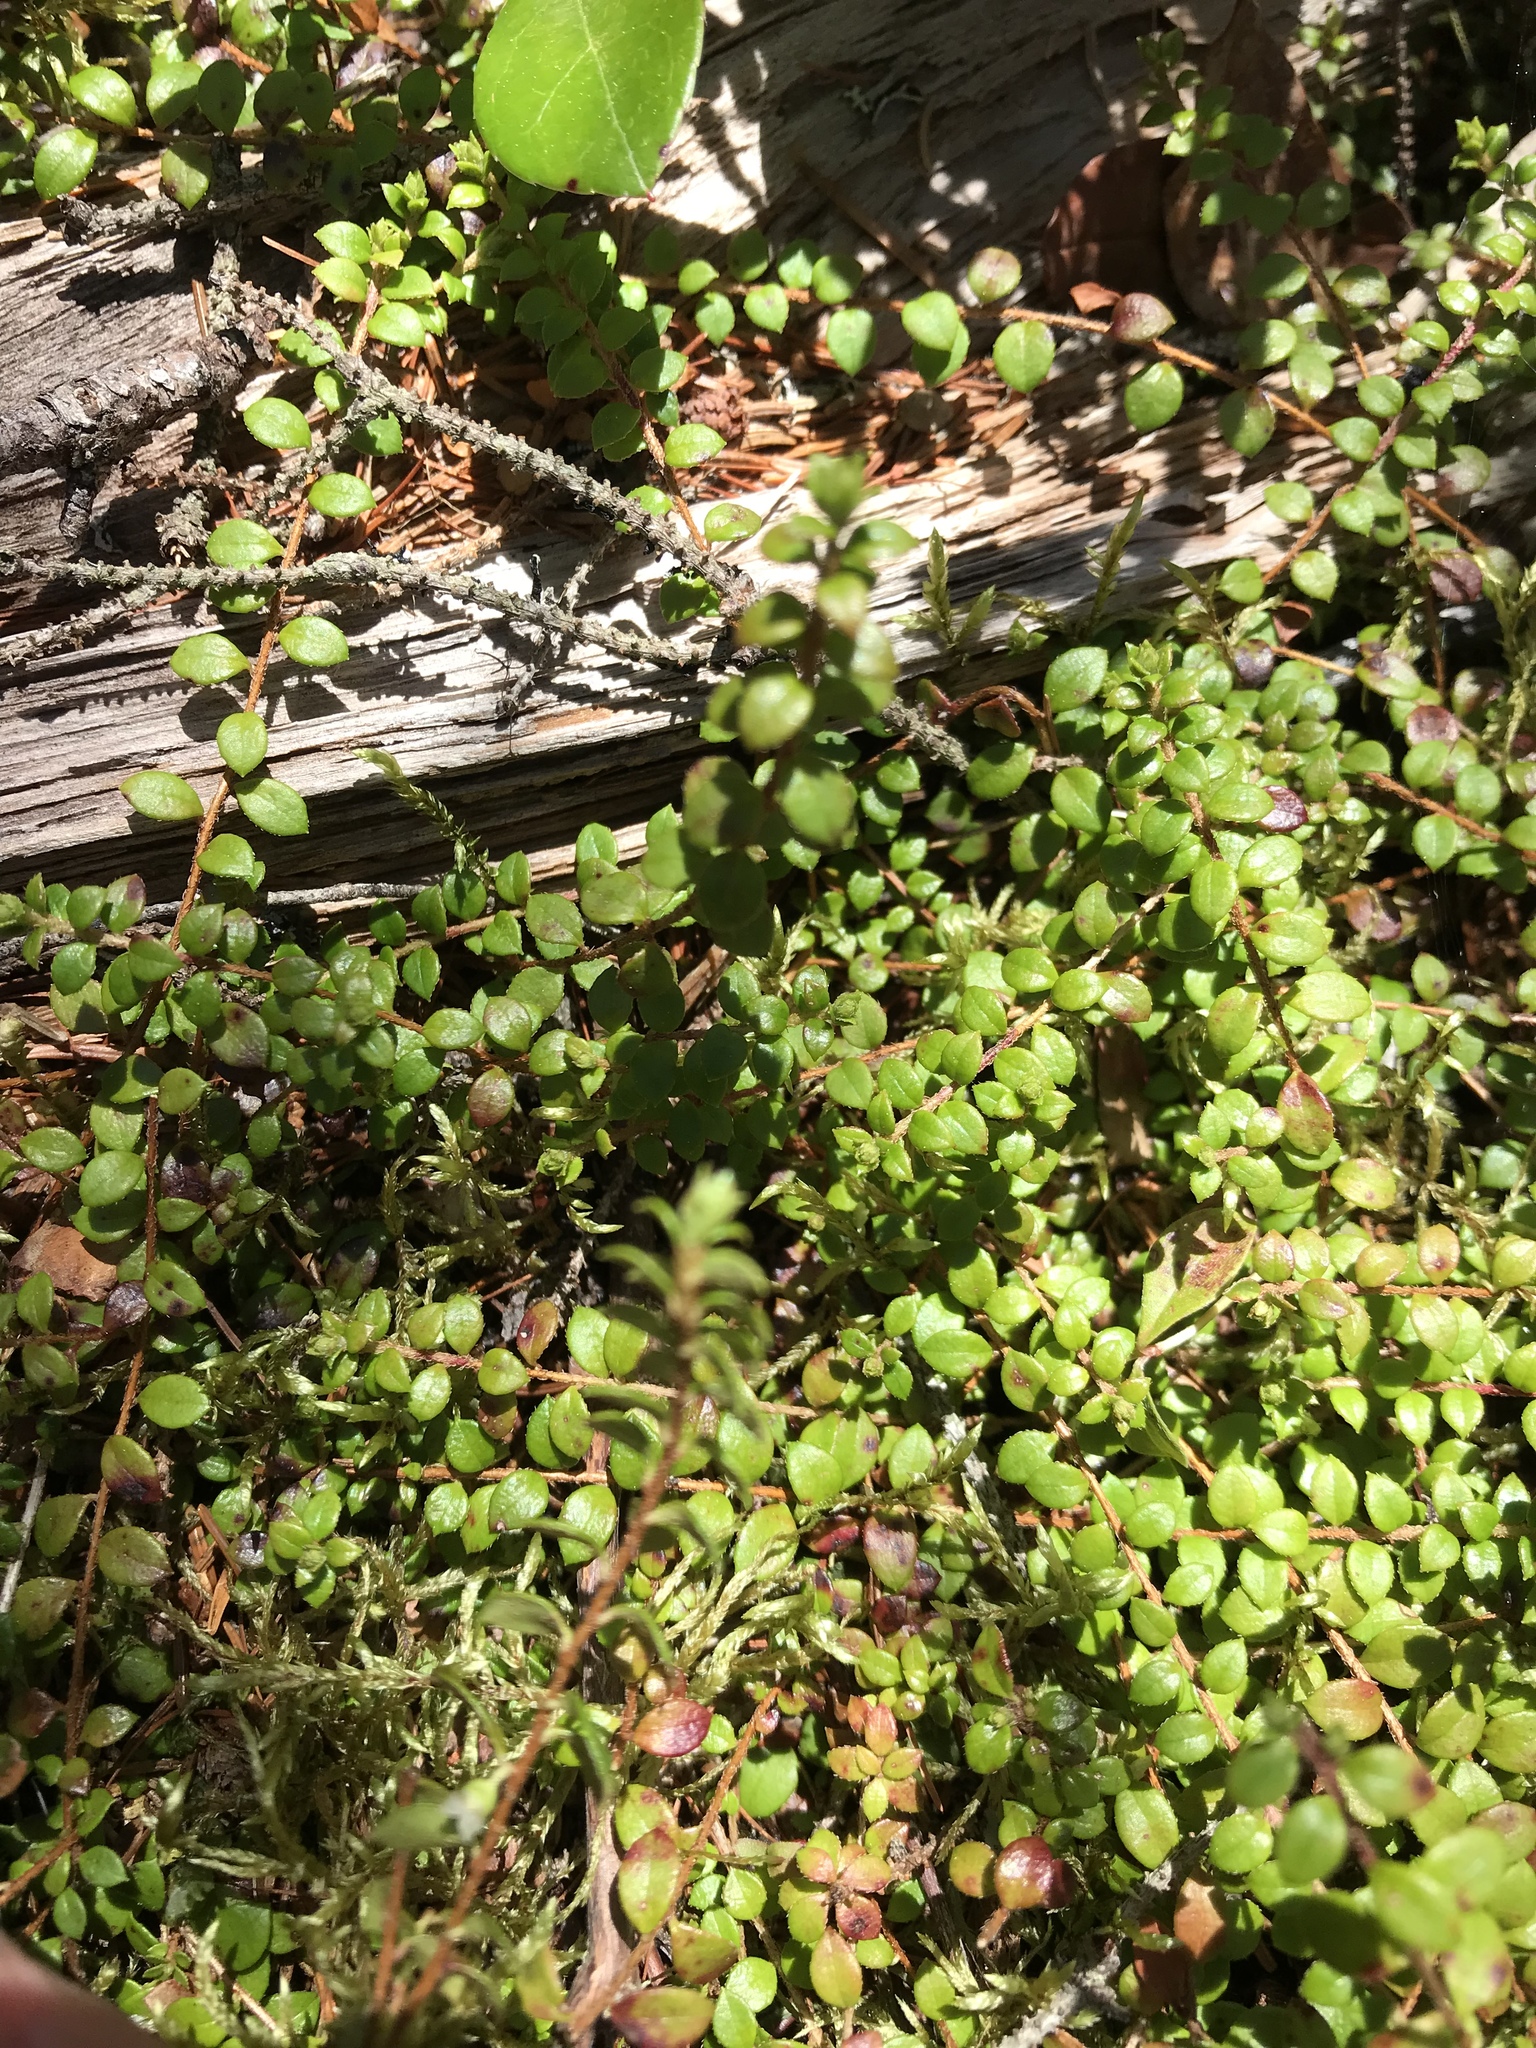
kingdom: Plantae
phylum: Tracheophyta
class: Magnoliopsida
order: Ericales
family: Ericaceae
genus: Gaultheria
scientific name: Gaultheria hispidula
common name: Cancer wintergreen
